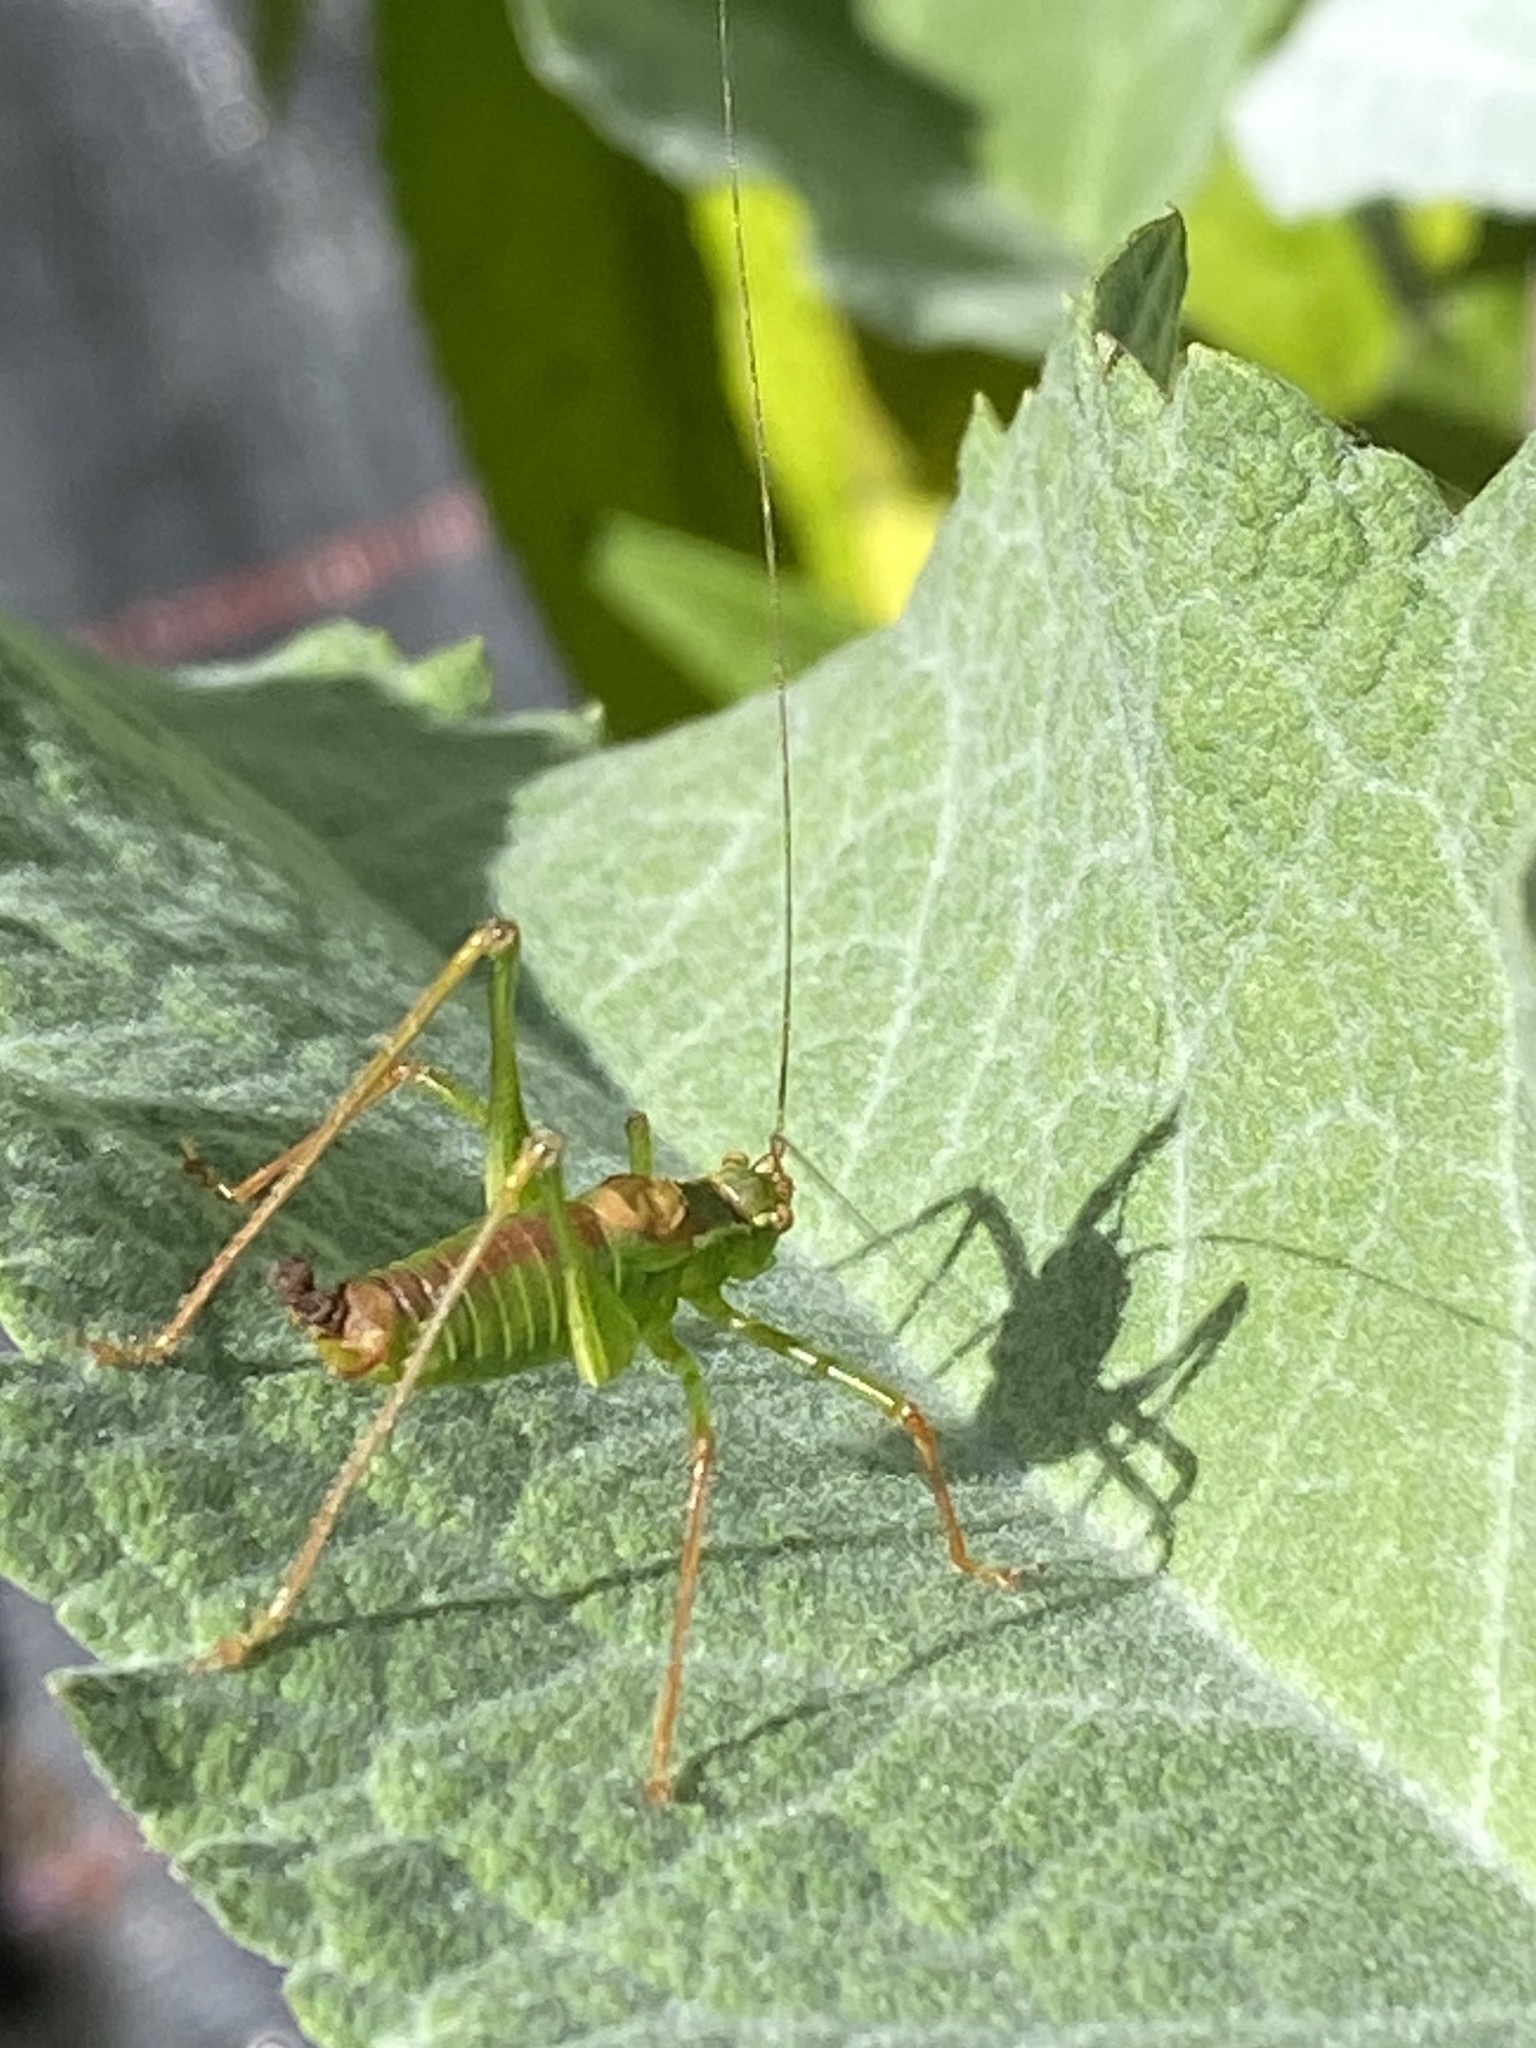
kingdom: Animalia
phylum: Arthropoda
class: Insecta
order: Orthoptera
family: Tettigoniidae
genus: Leptophyes
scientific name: Leptophyes punctatissima
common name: Speckled bush-cricket
